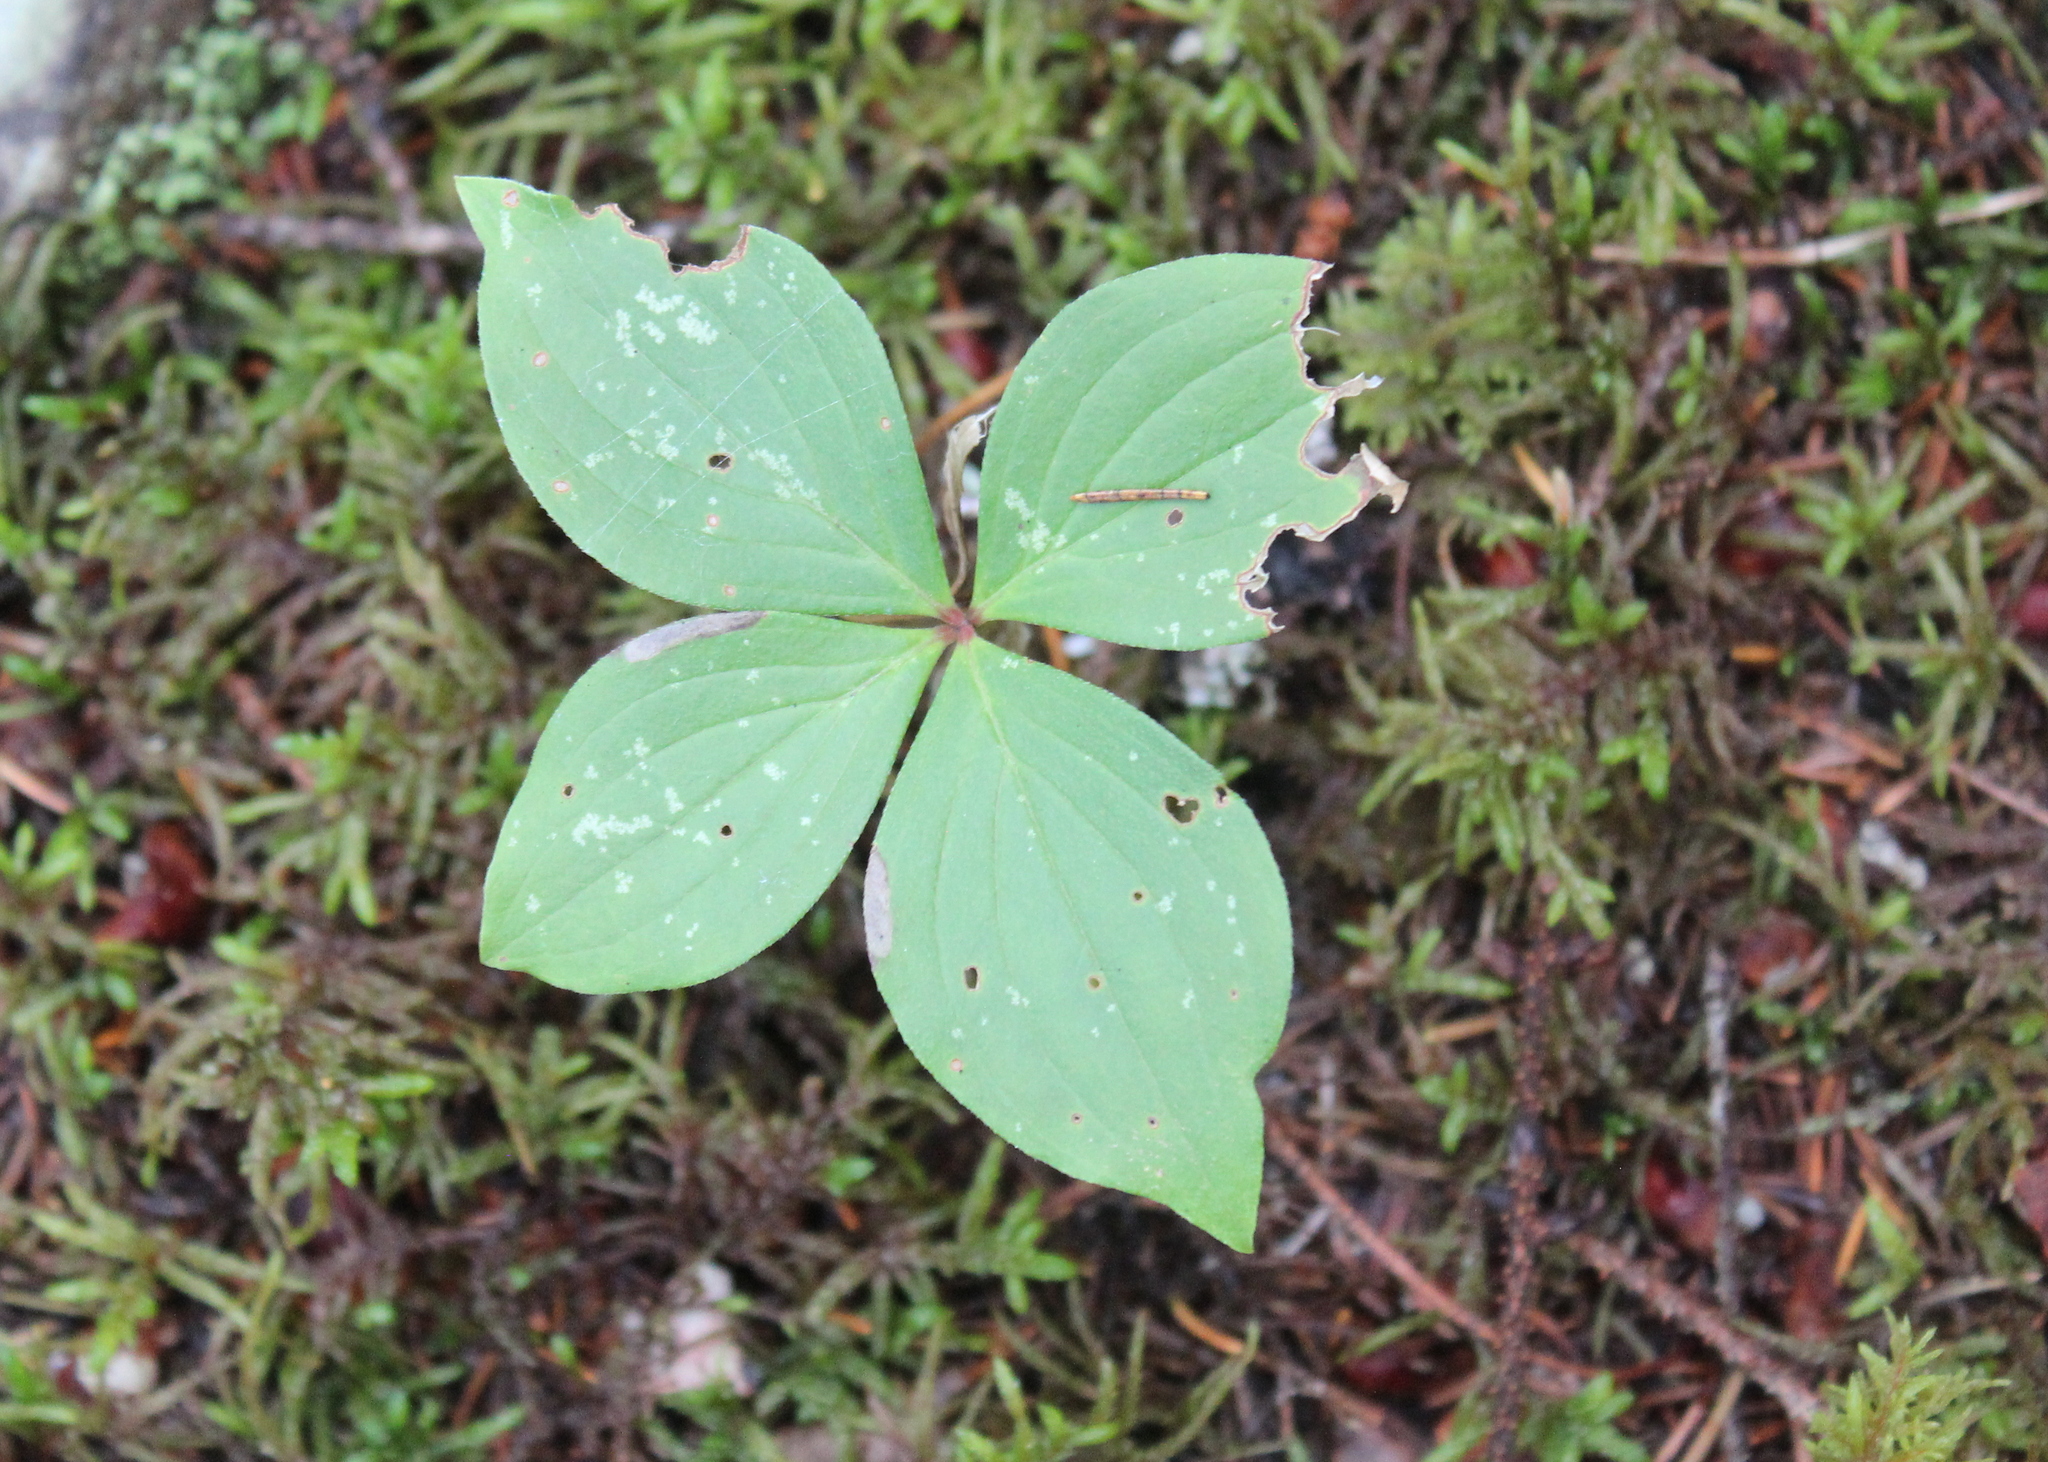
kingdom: Plantae
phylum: Tracheophyta
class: Magnoliopsida
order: Cornales
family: Cornaceae
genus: Cornus
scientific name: Cornus canadensis
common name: Creeping dogwood
